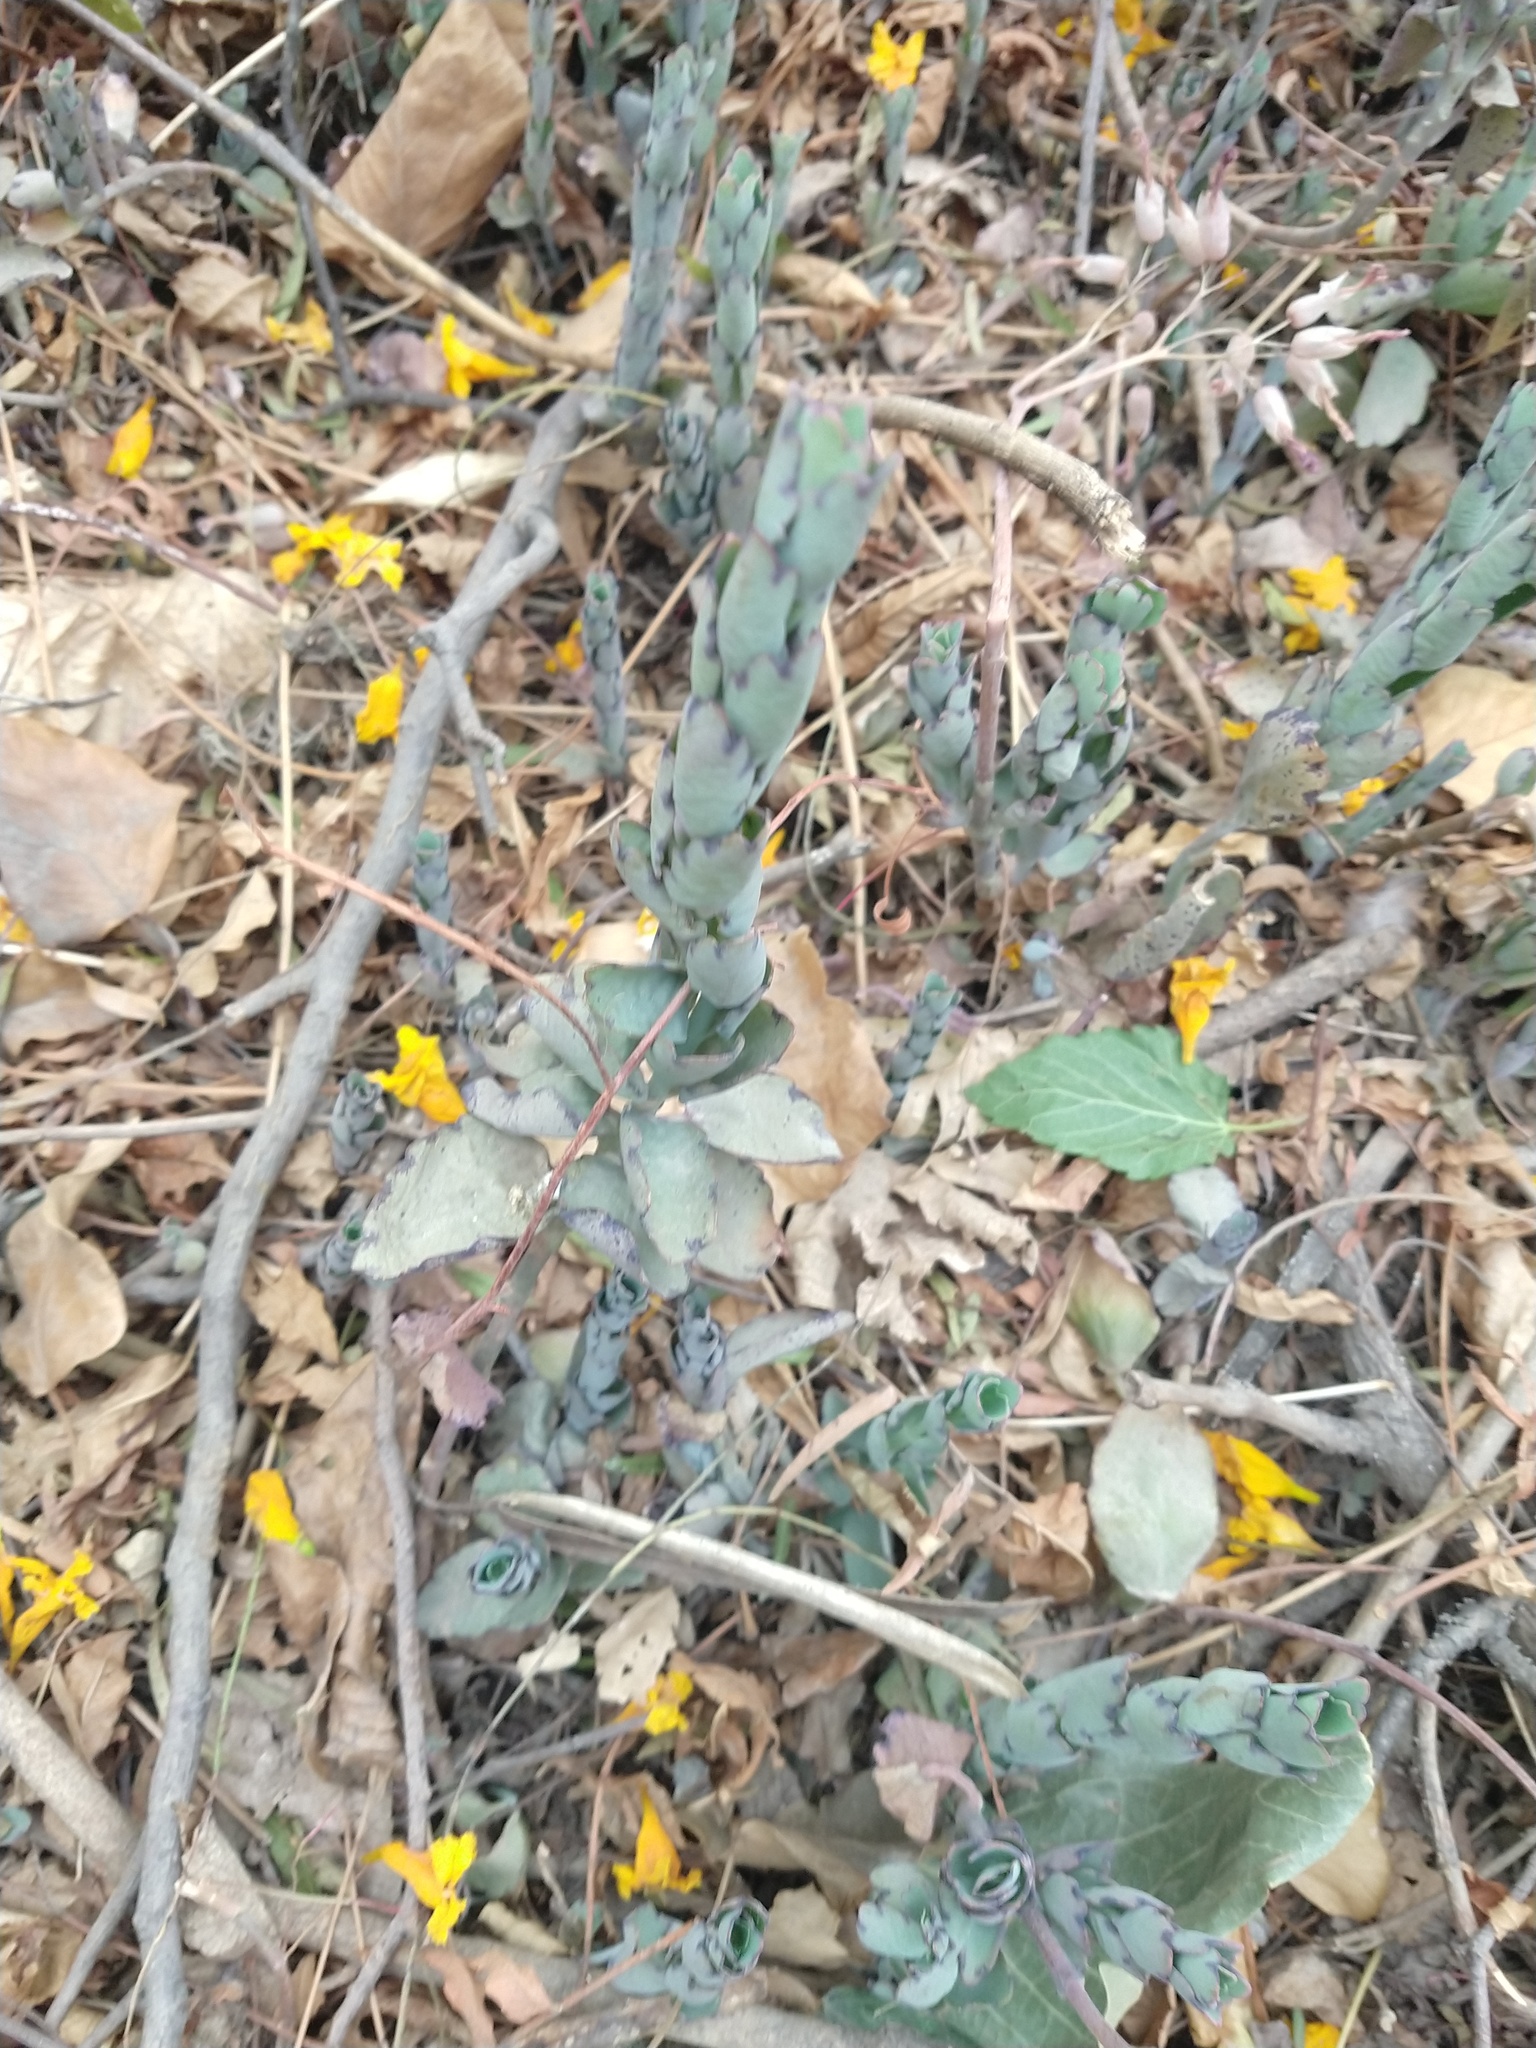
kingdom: Plantae
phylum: Tracheophyta
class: Magnoliopsida
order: Saxifragales
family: Crassulaceae
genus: Kalanchoe
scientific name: Kalanchoe laxiflora
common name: Milky widow's thrill
